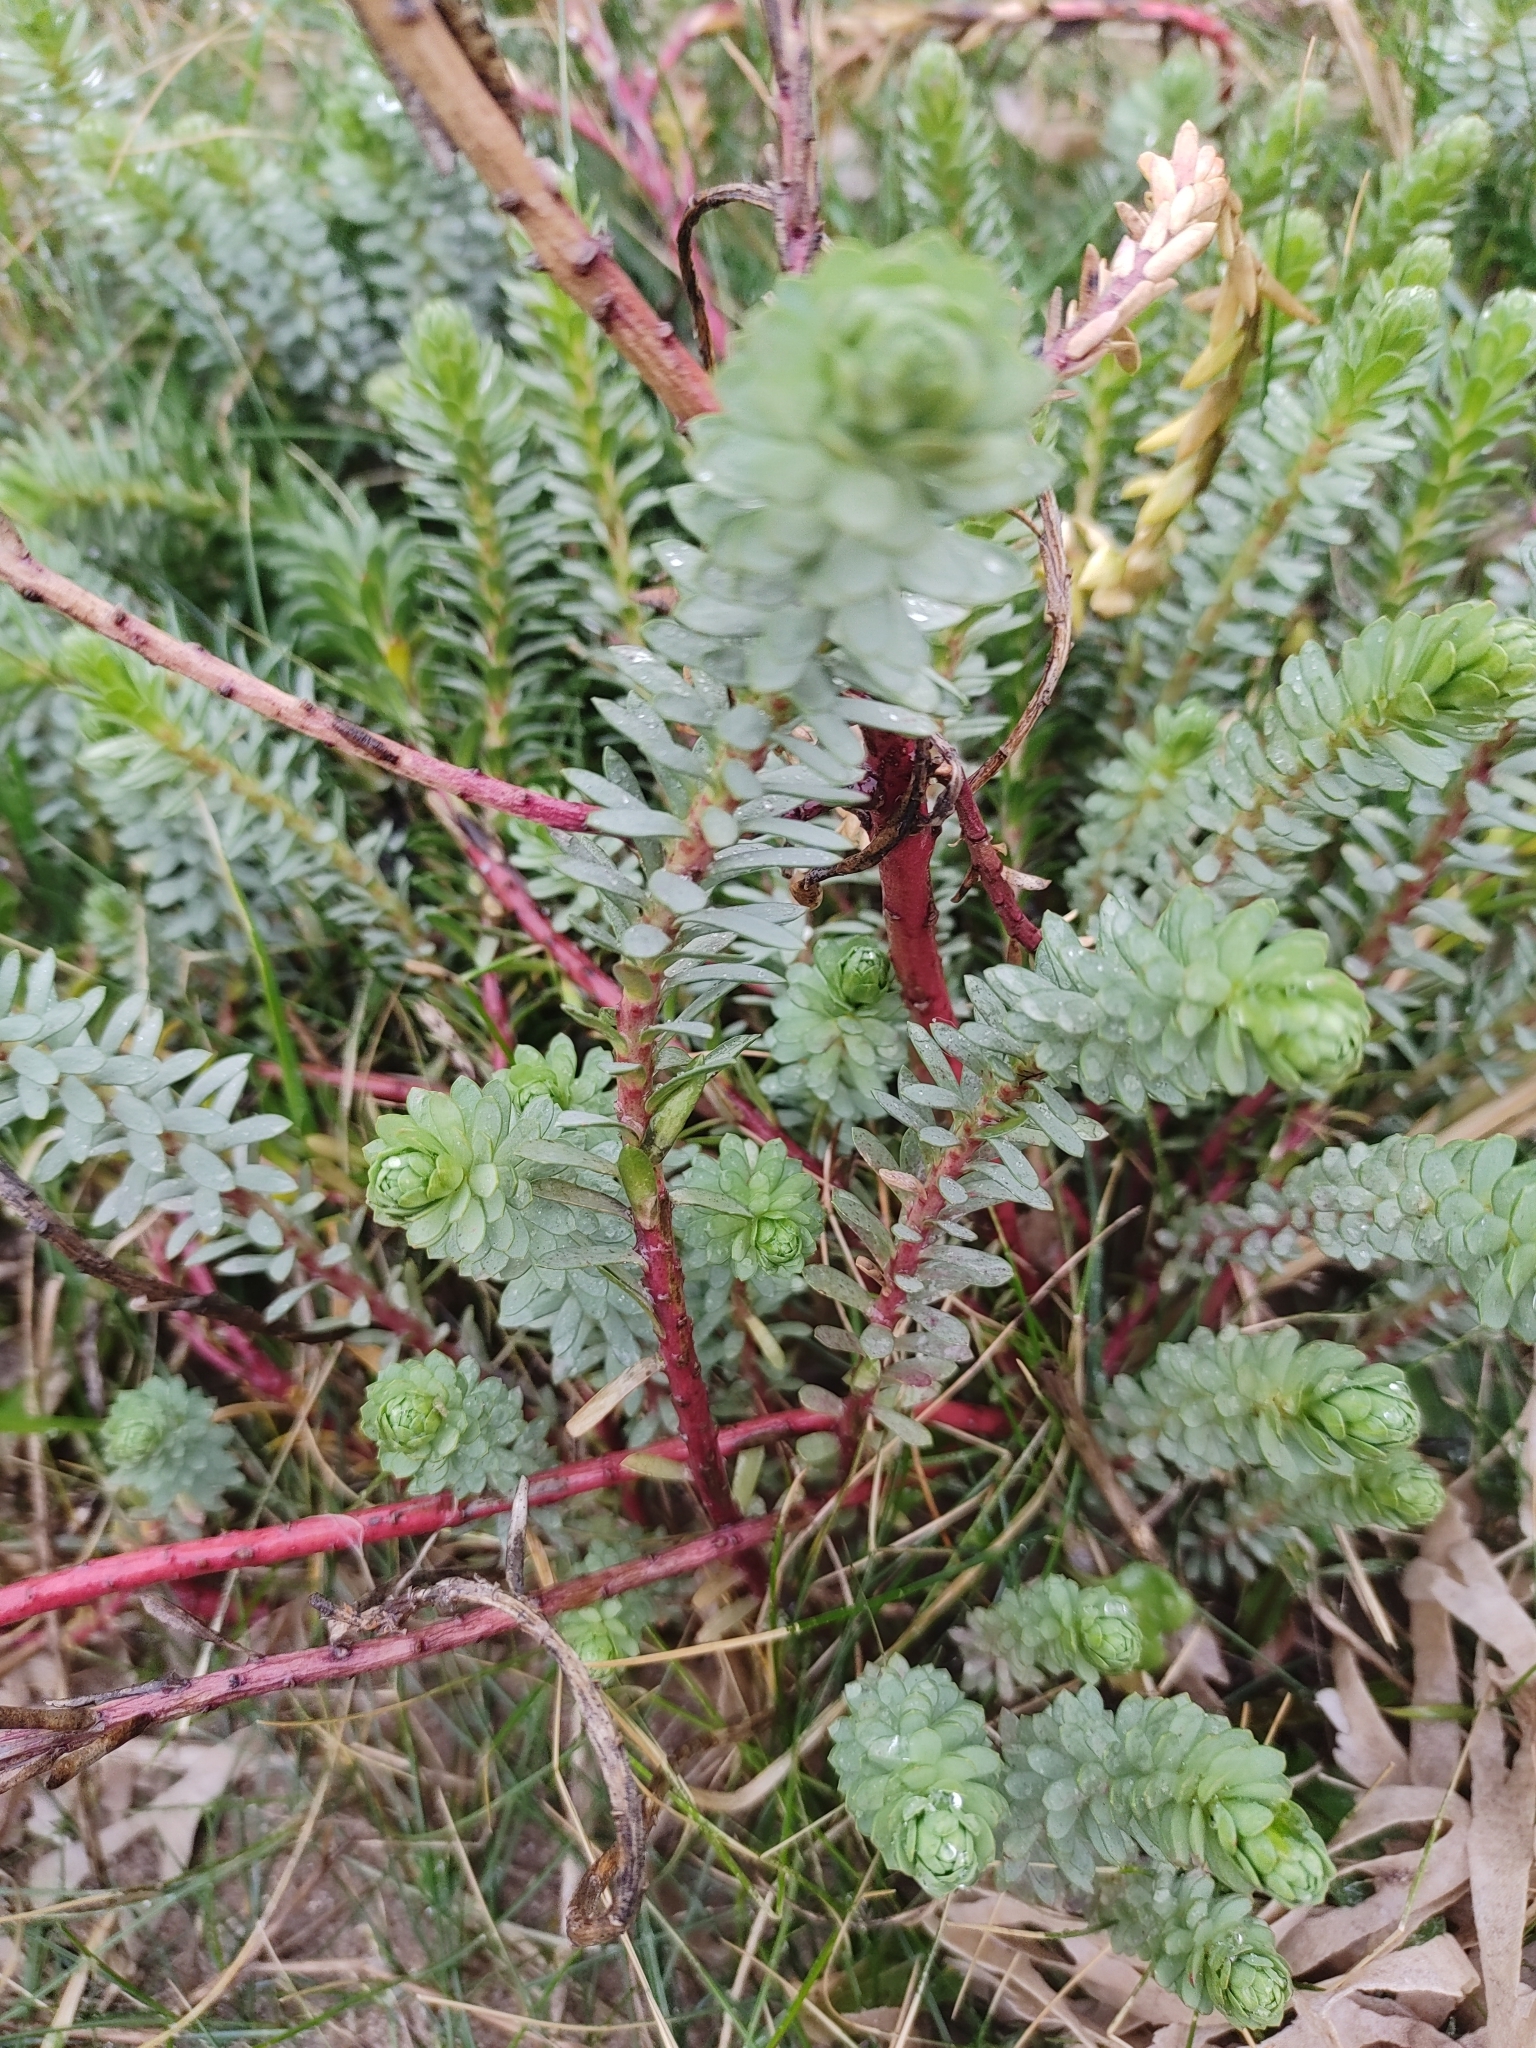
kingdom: Plantae
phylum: Tracheophyta
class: Magnoliopsida
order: Malpighiales
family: Euphorbiaceae
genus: Euphorbia
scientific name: Euphorbia paralias
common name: Sea spurge
